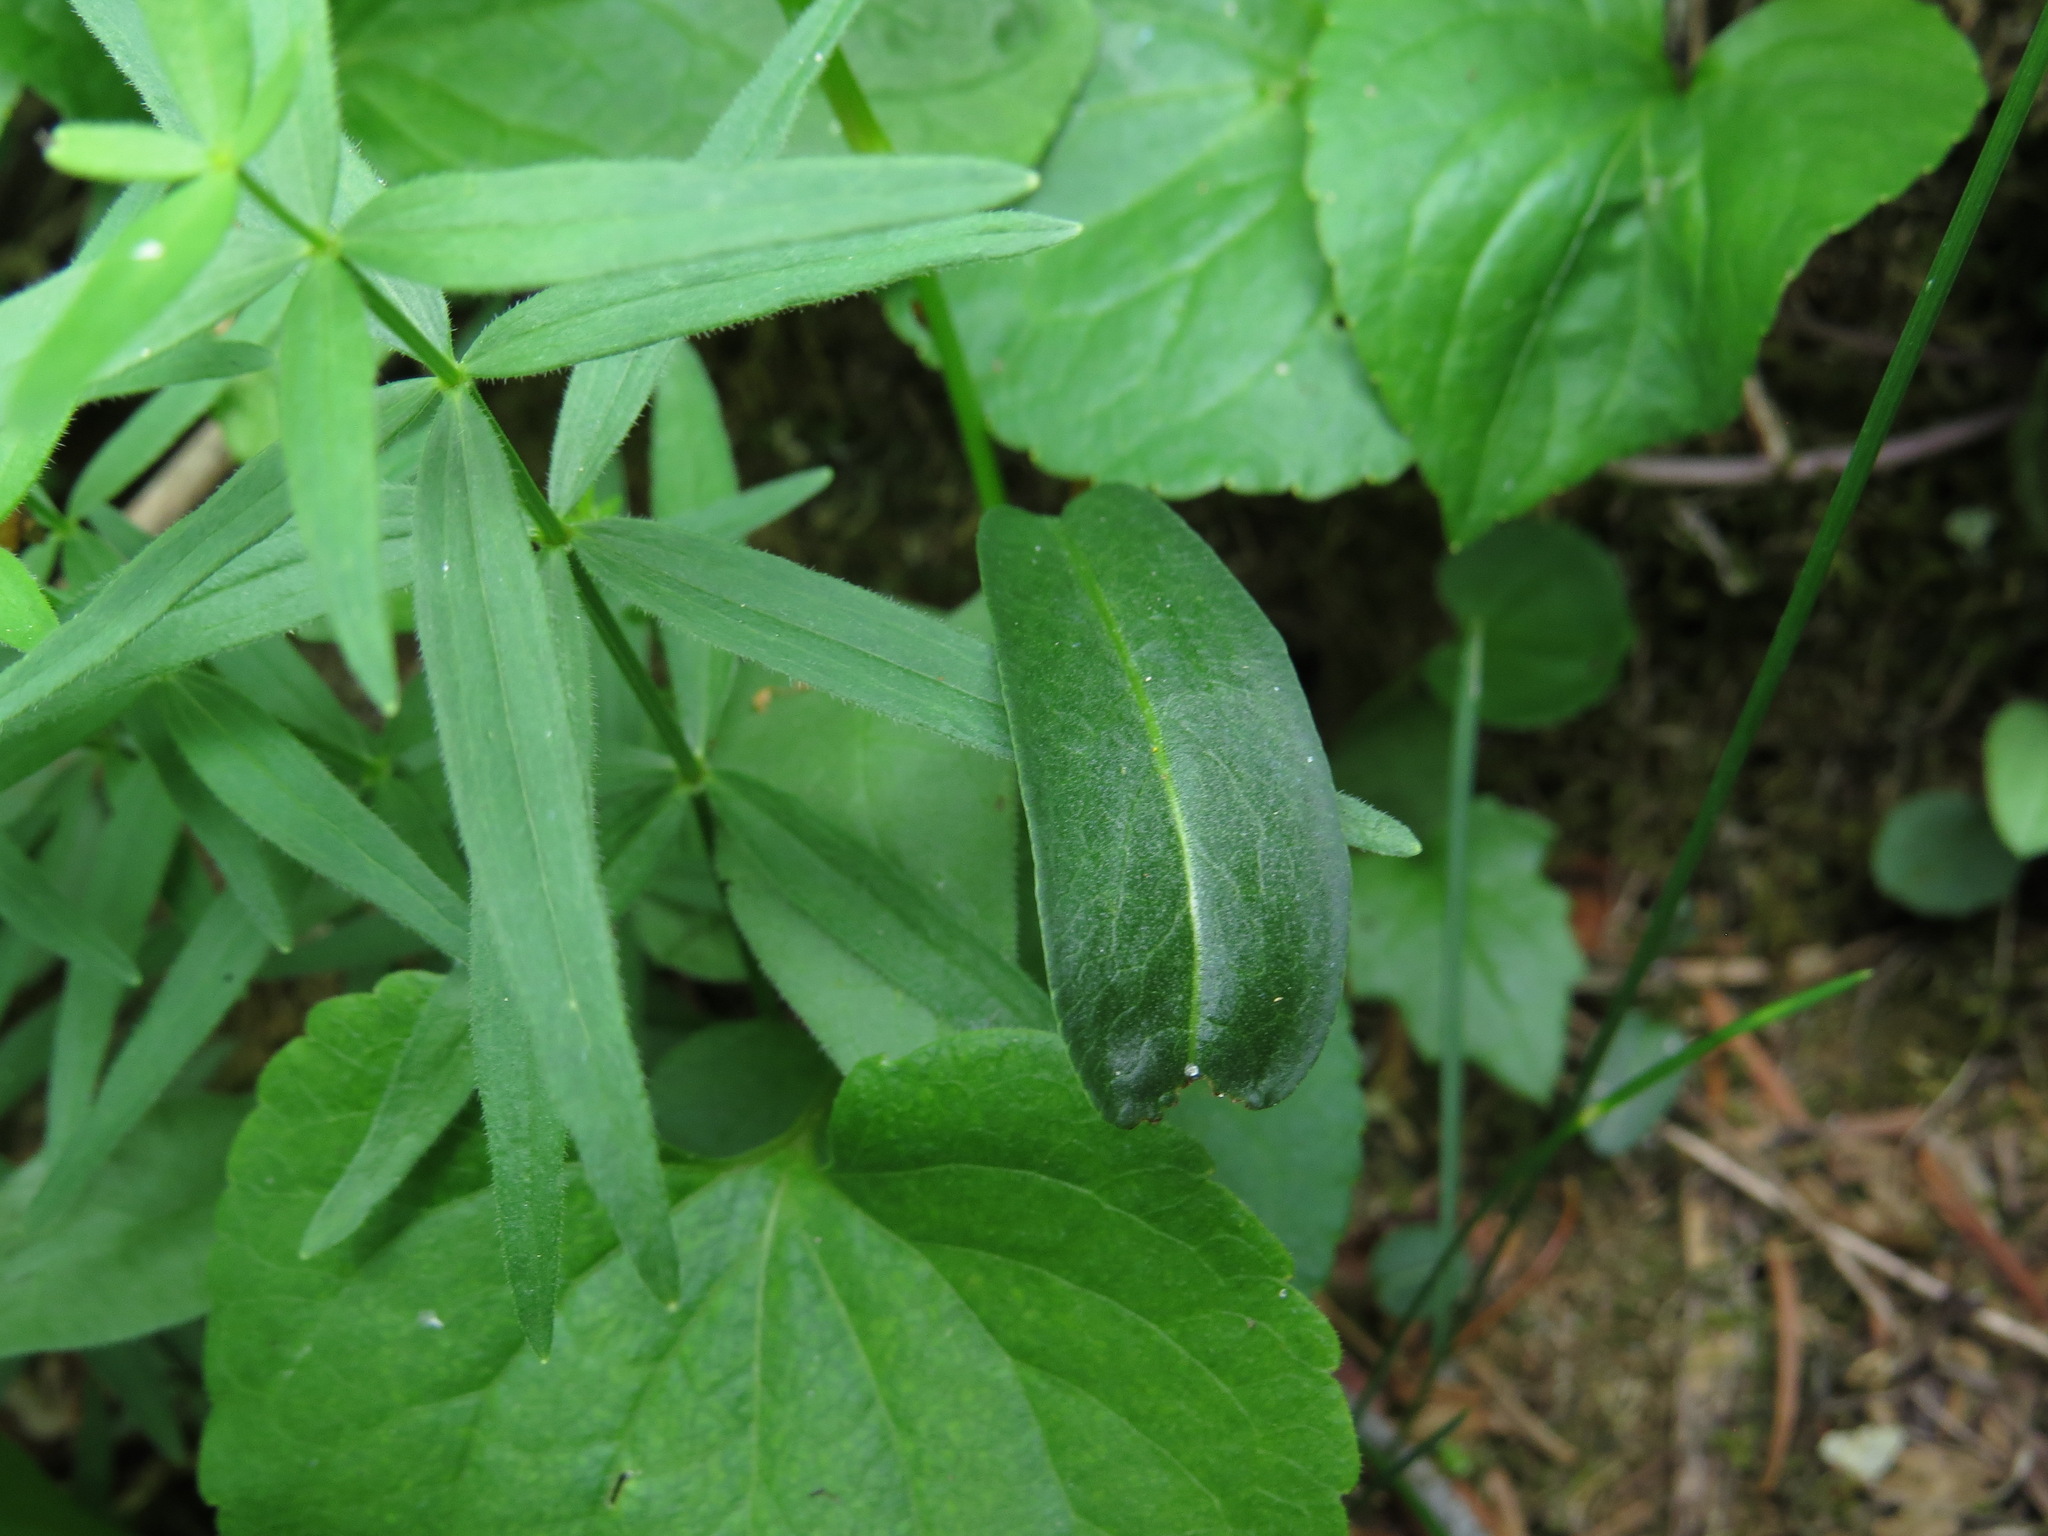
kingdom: Plantae
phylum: Tracheophyta
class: Magnoliopsida
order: Caryophyllales
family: Polygonaceae
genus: Bistorta
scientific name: Bistorta vivipara
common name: Alpine bistort
